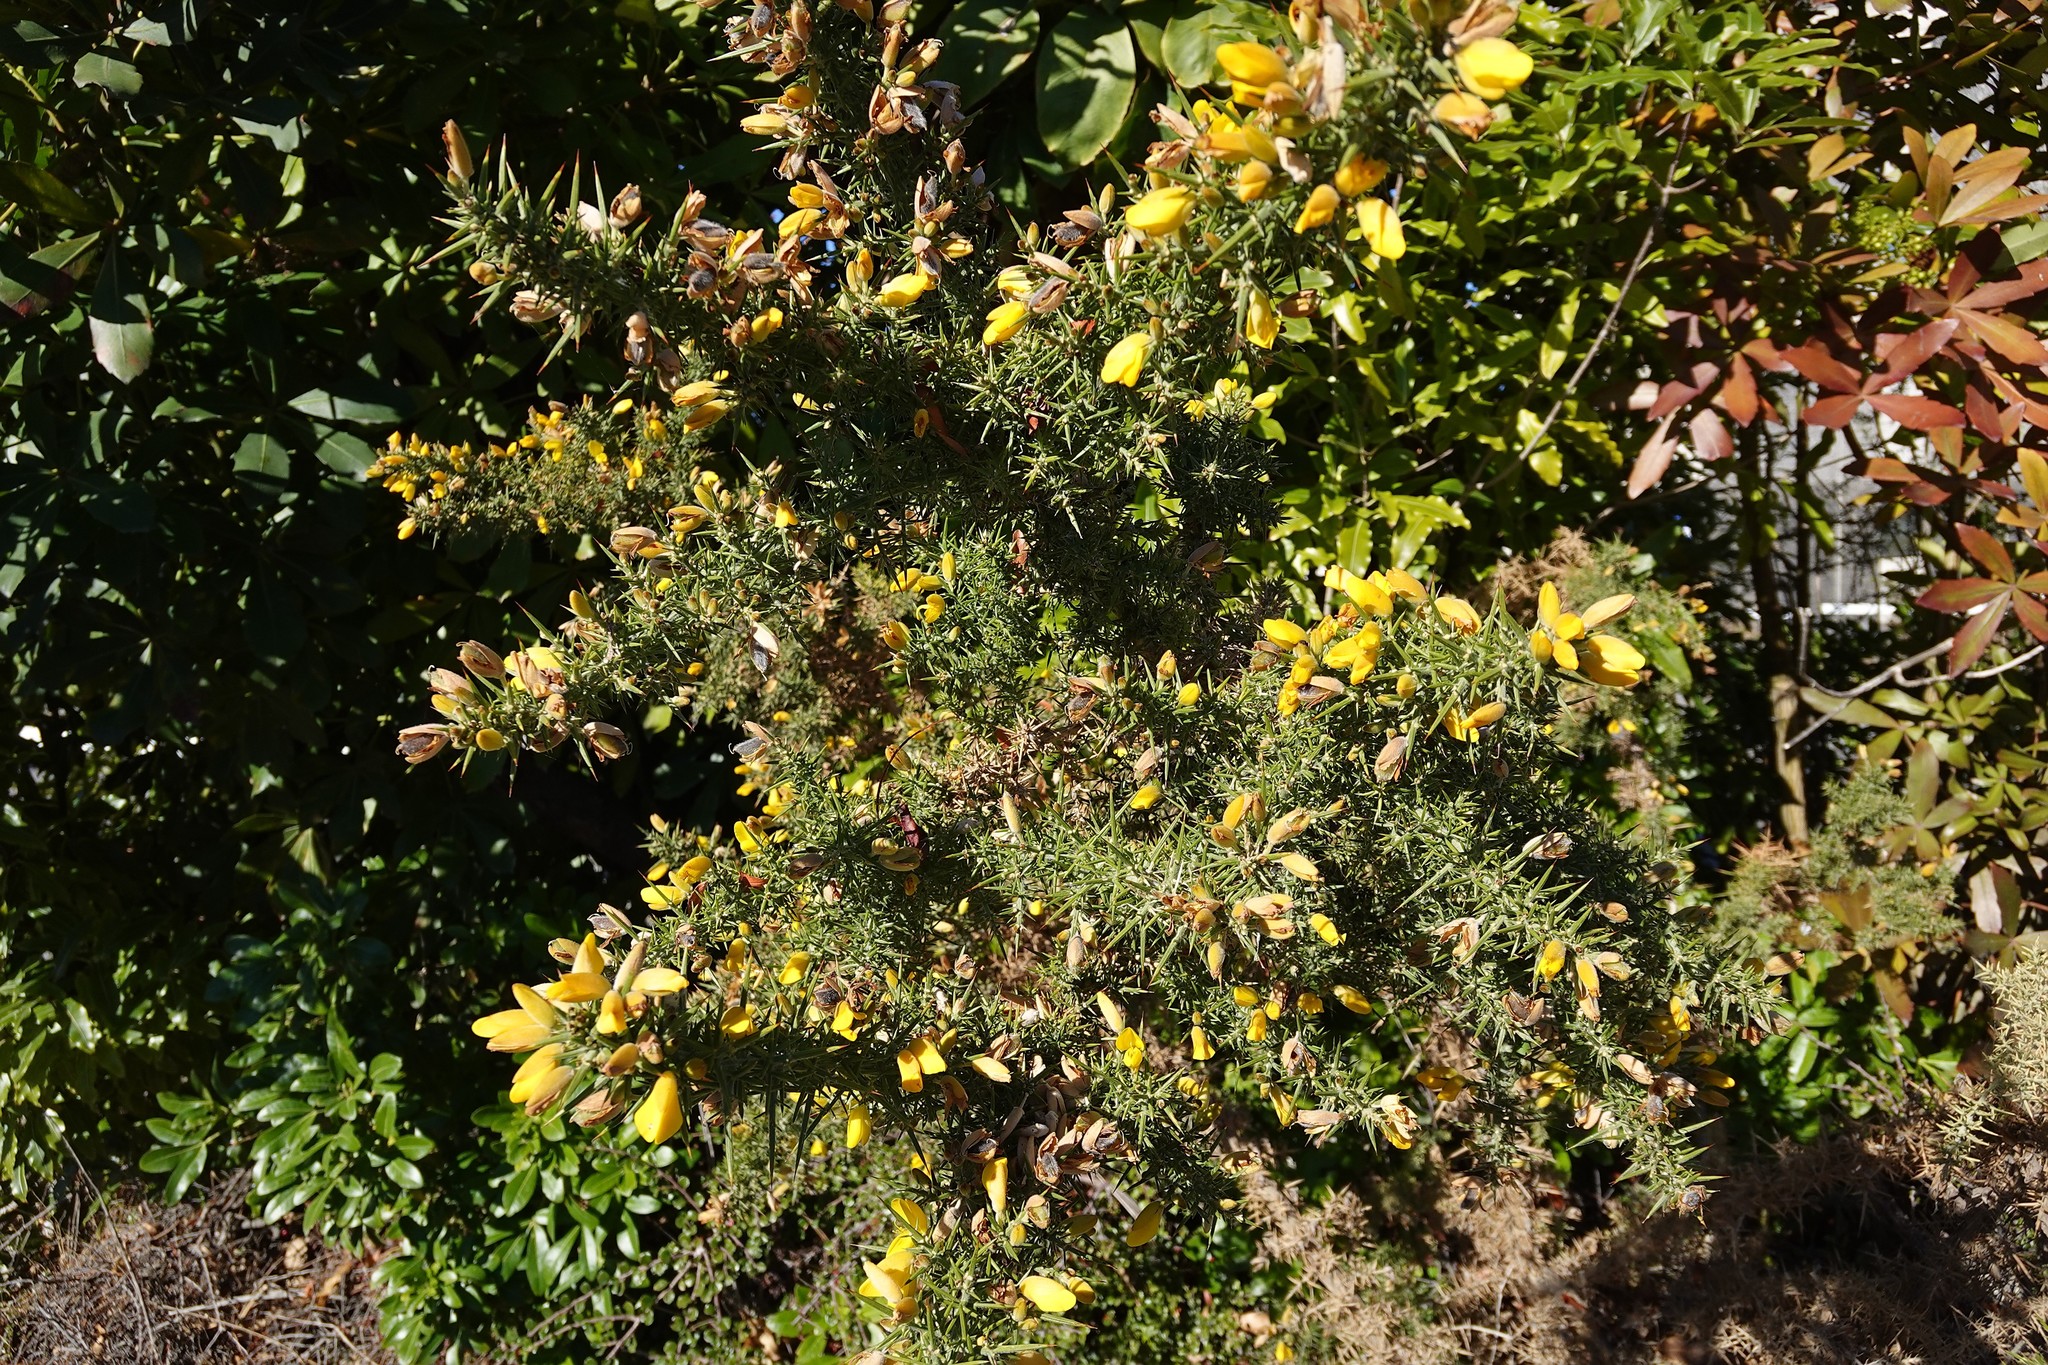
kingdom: Plantae
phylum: Tracheophyta
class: Magnoliopsida
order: Fabales
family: Fabaceae
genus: Ulex
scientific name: Ulex europaeus
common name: Common gorse
